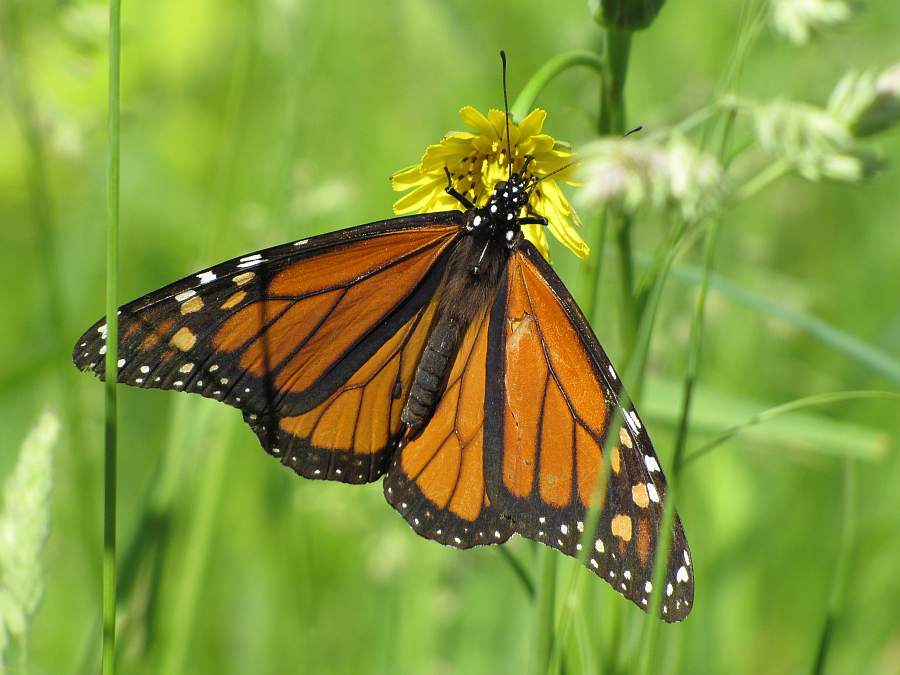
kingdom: Animalia
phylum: Arthropoda
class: Insecta
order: Lepidoptera
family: Nymphalidae
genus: Danaus
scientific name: Danaus plexippus
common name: Monarch
